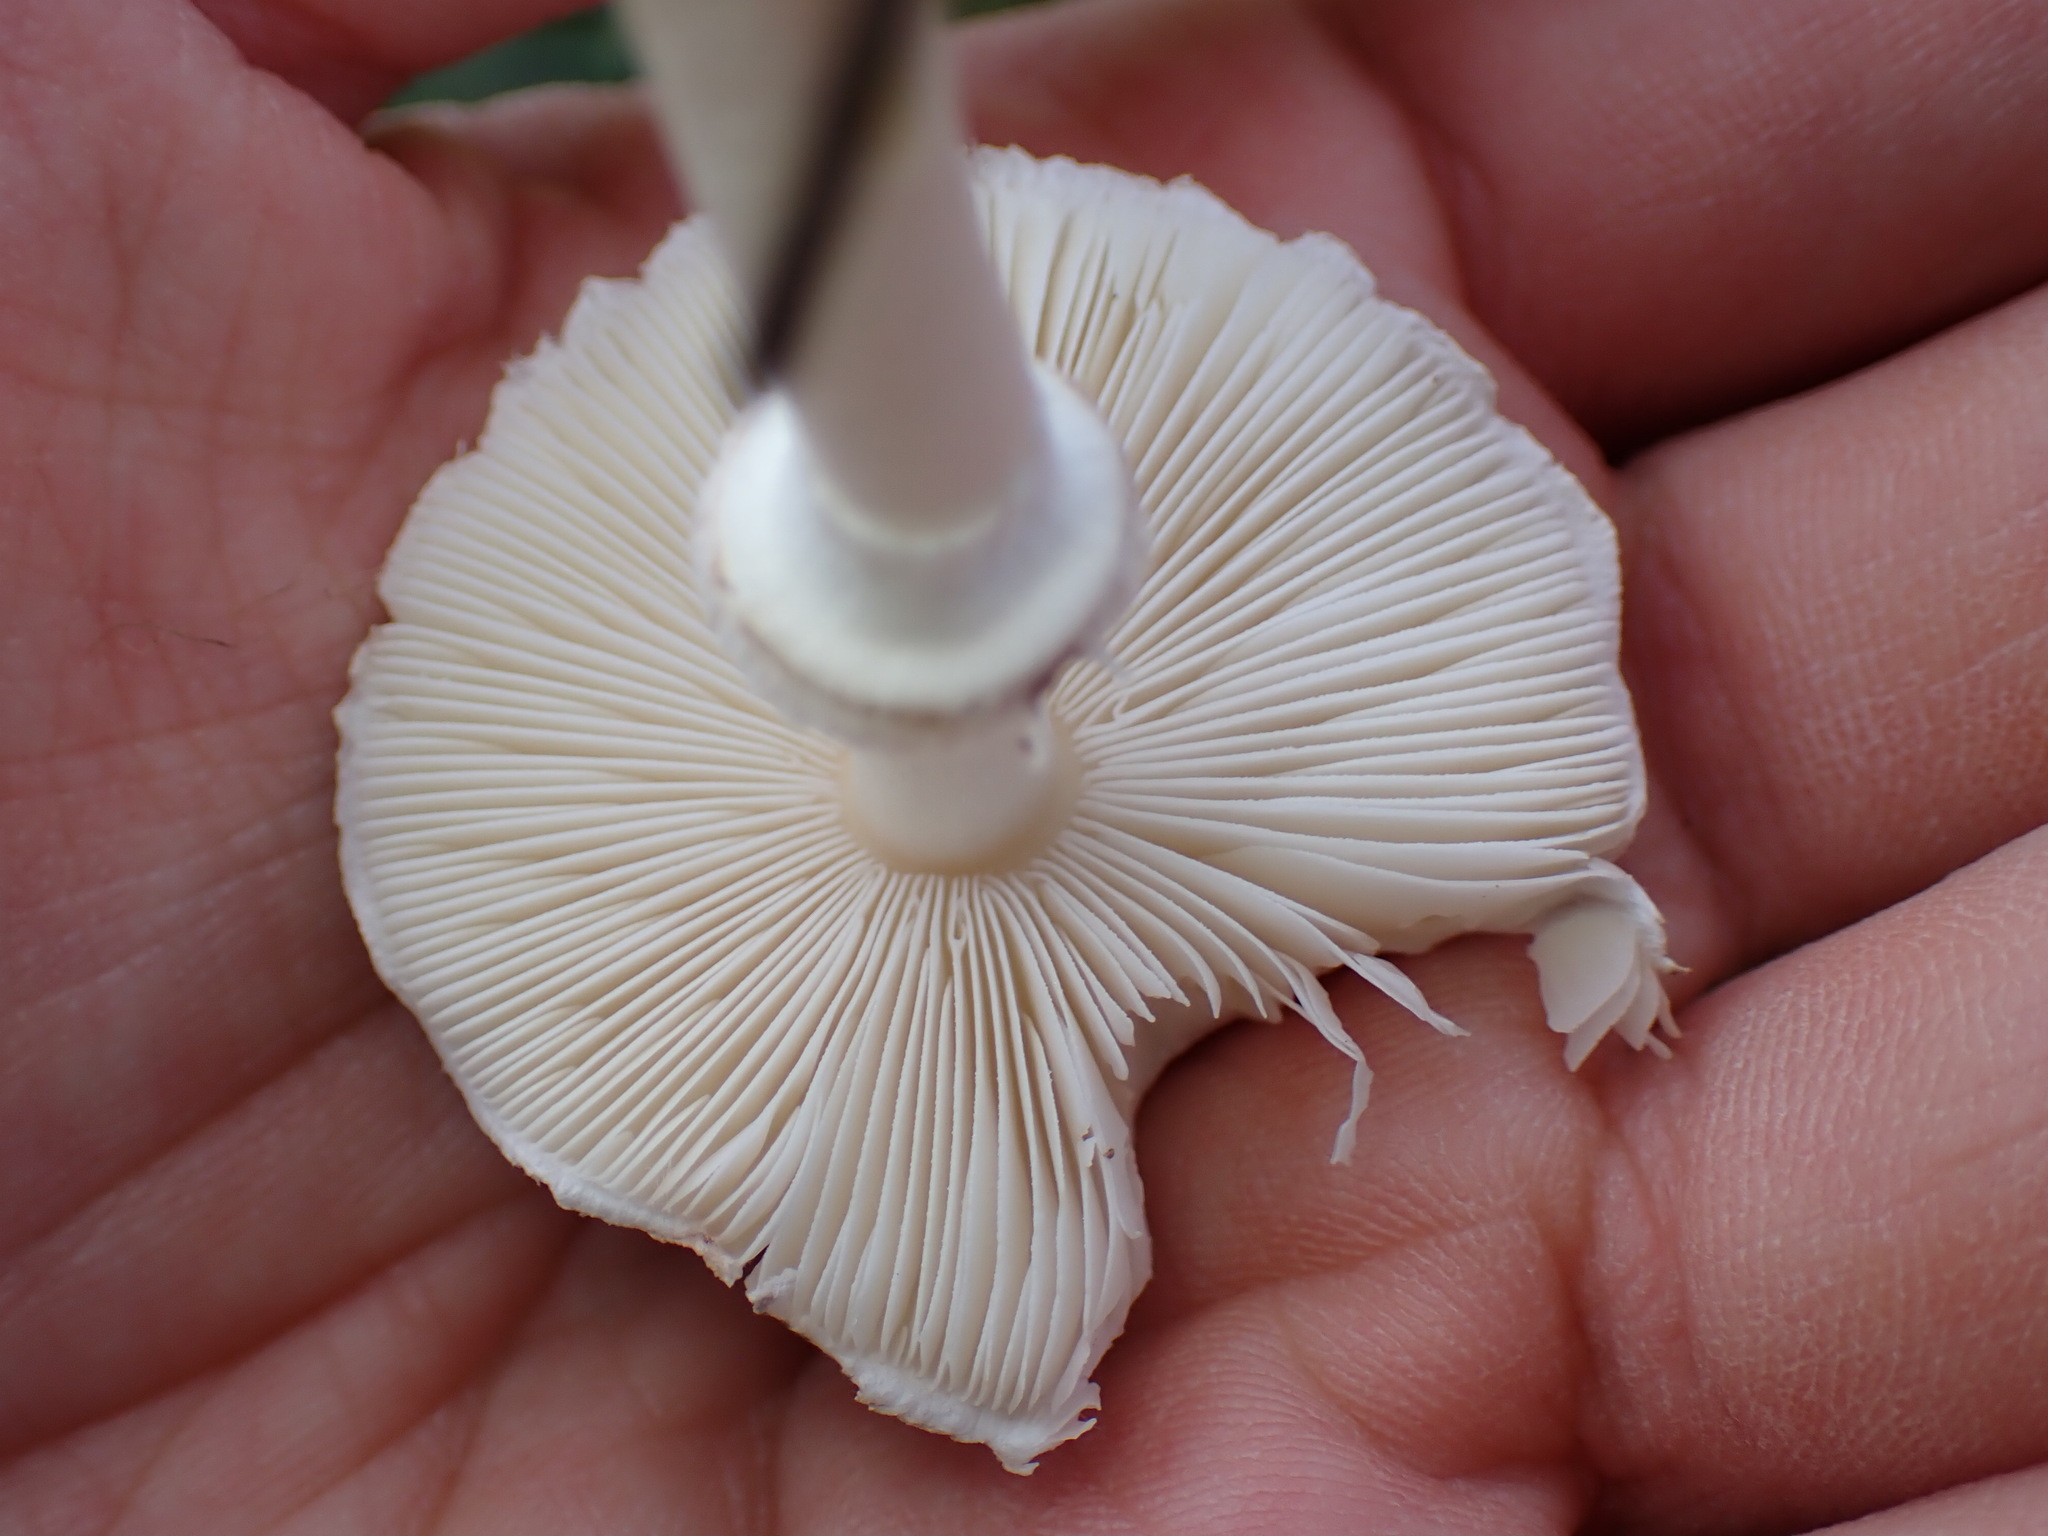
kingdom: Fungi
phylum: Basidiomycota
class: Agaricomycetes
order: Agaricales
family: Agaricaceae
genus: Leucoagaricus
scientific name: Leucoagaricus leucothites
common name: White dapperling
